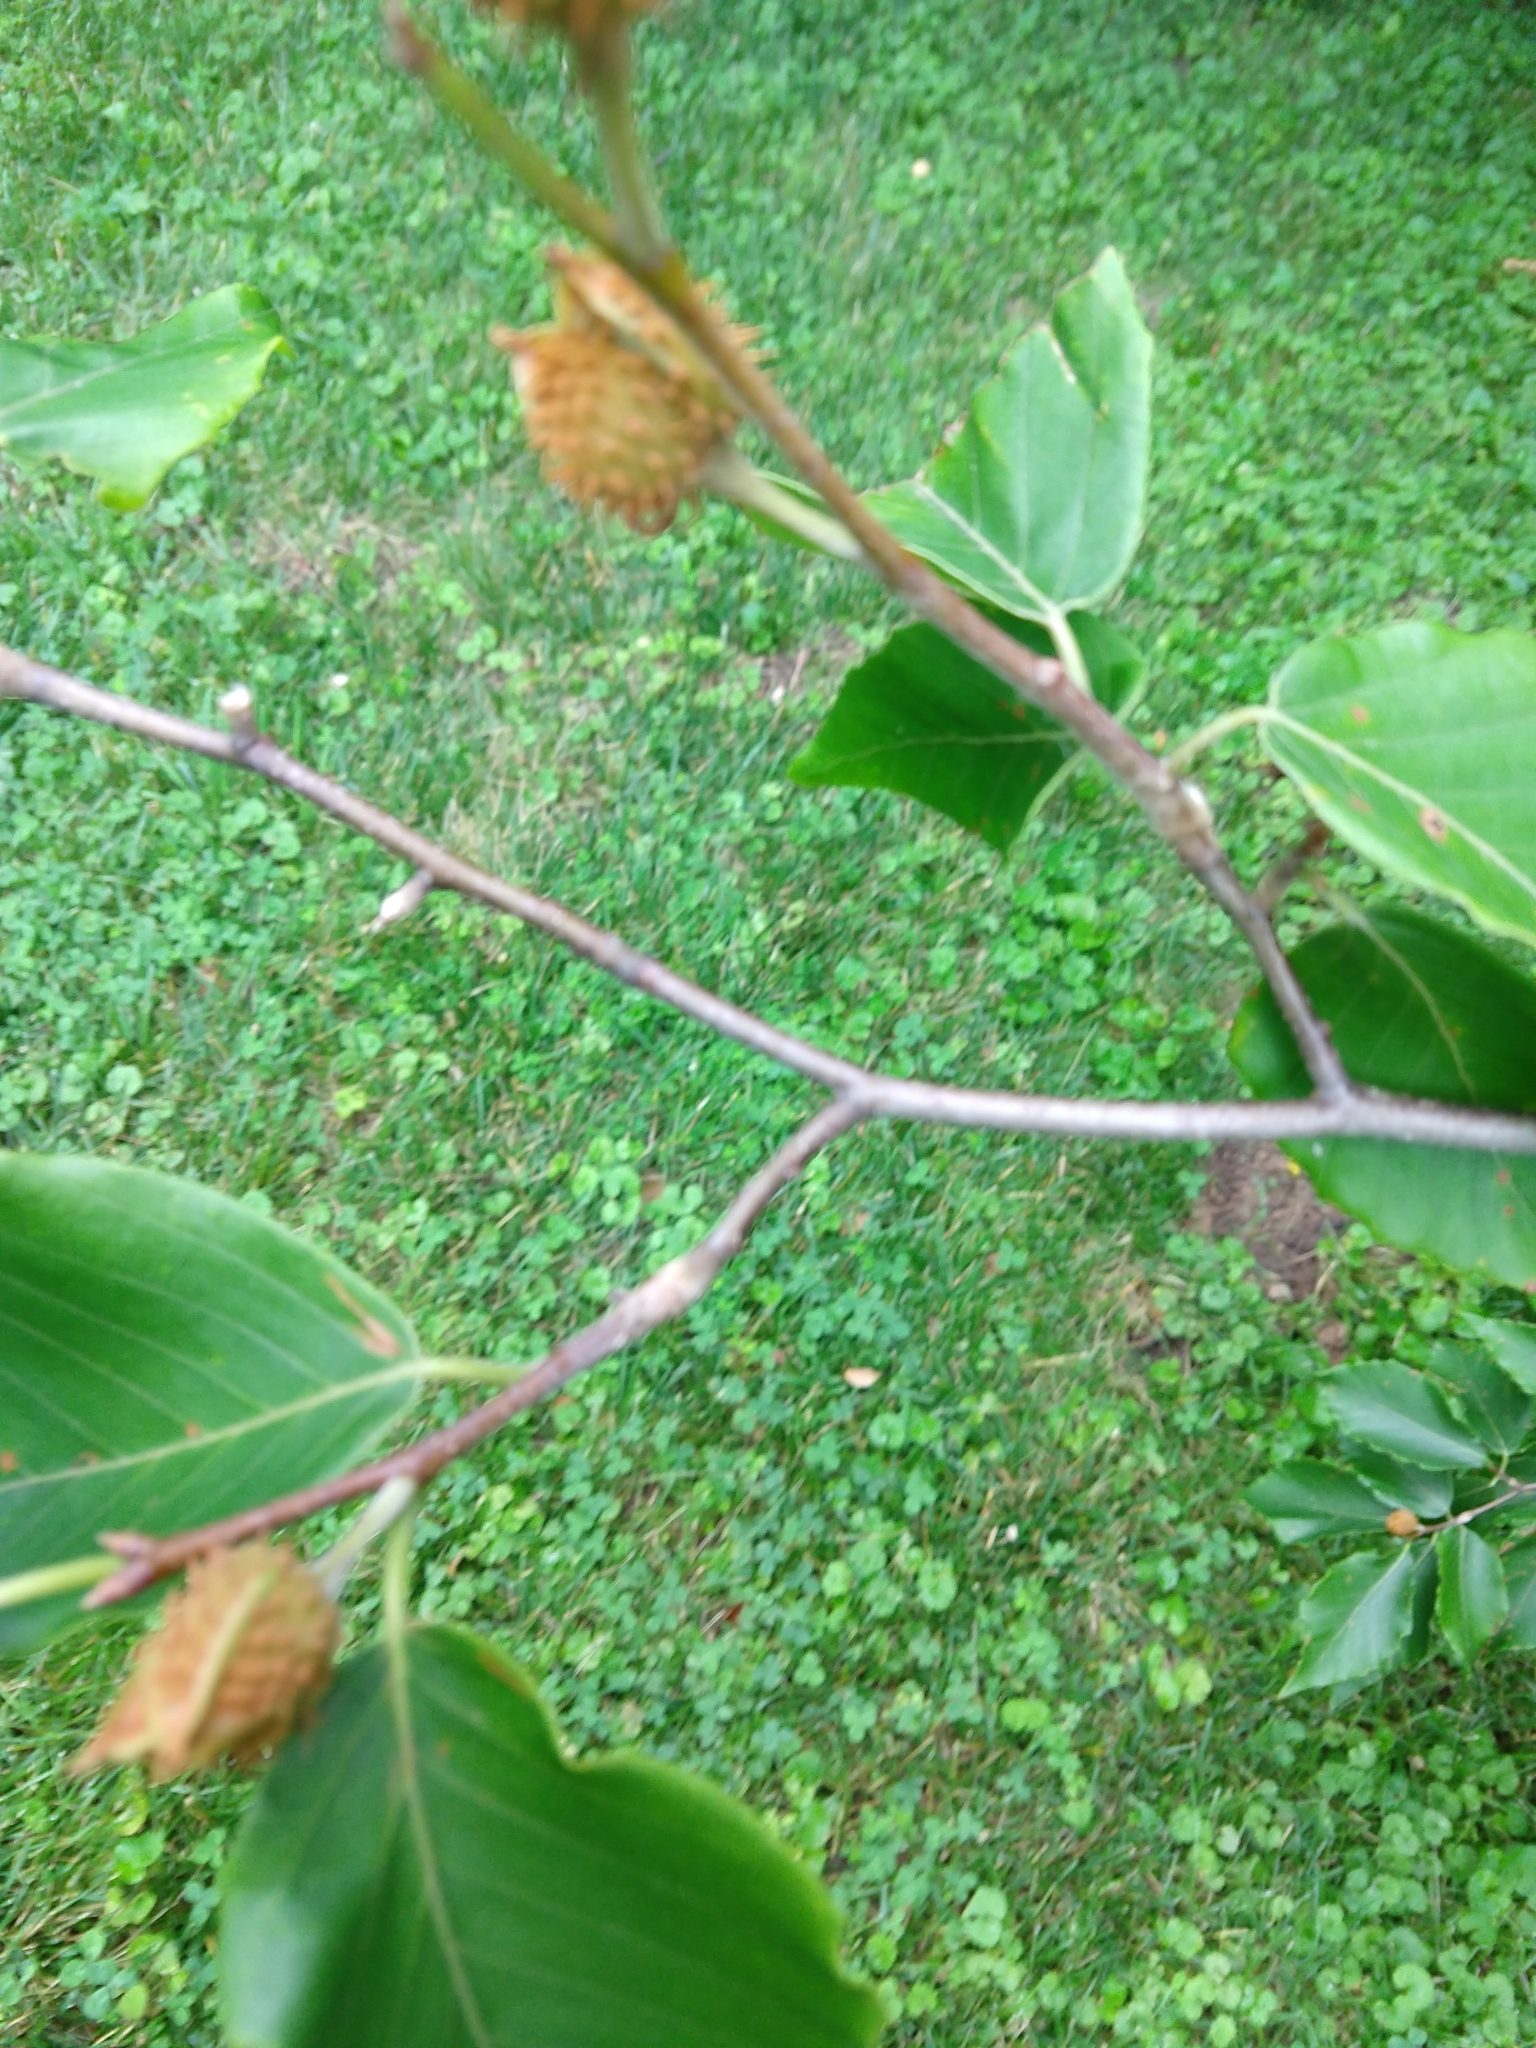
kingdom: Plantae
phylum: Tracheophyta
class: Magnoliopsida
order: Fagales
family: Fagaceae
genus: Fagus
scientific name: Fagus grandifolia
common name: American beech
